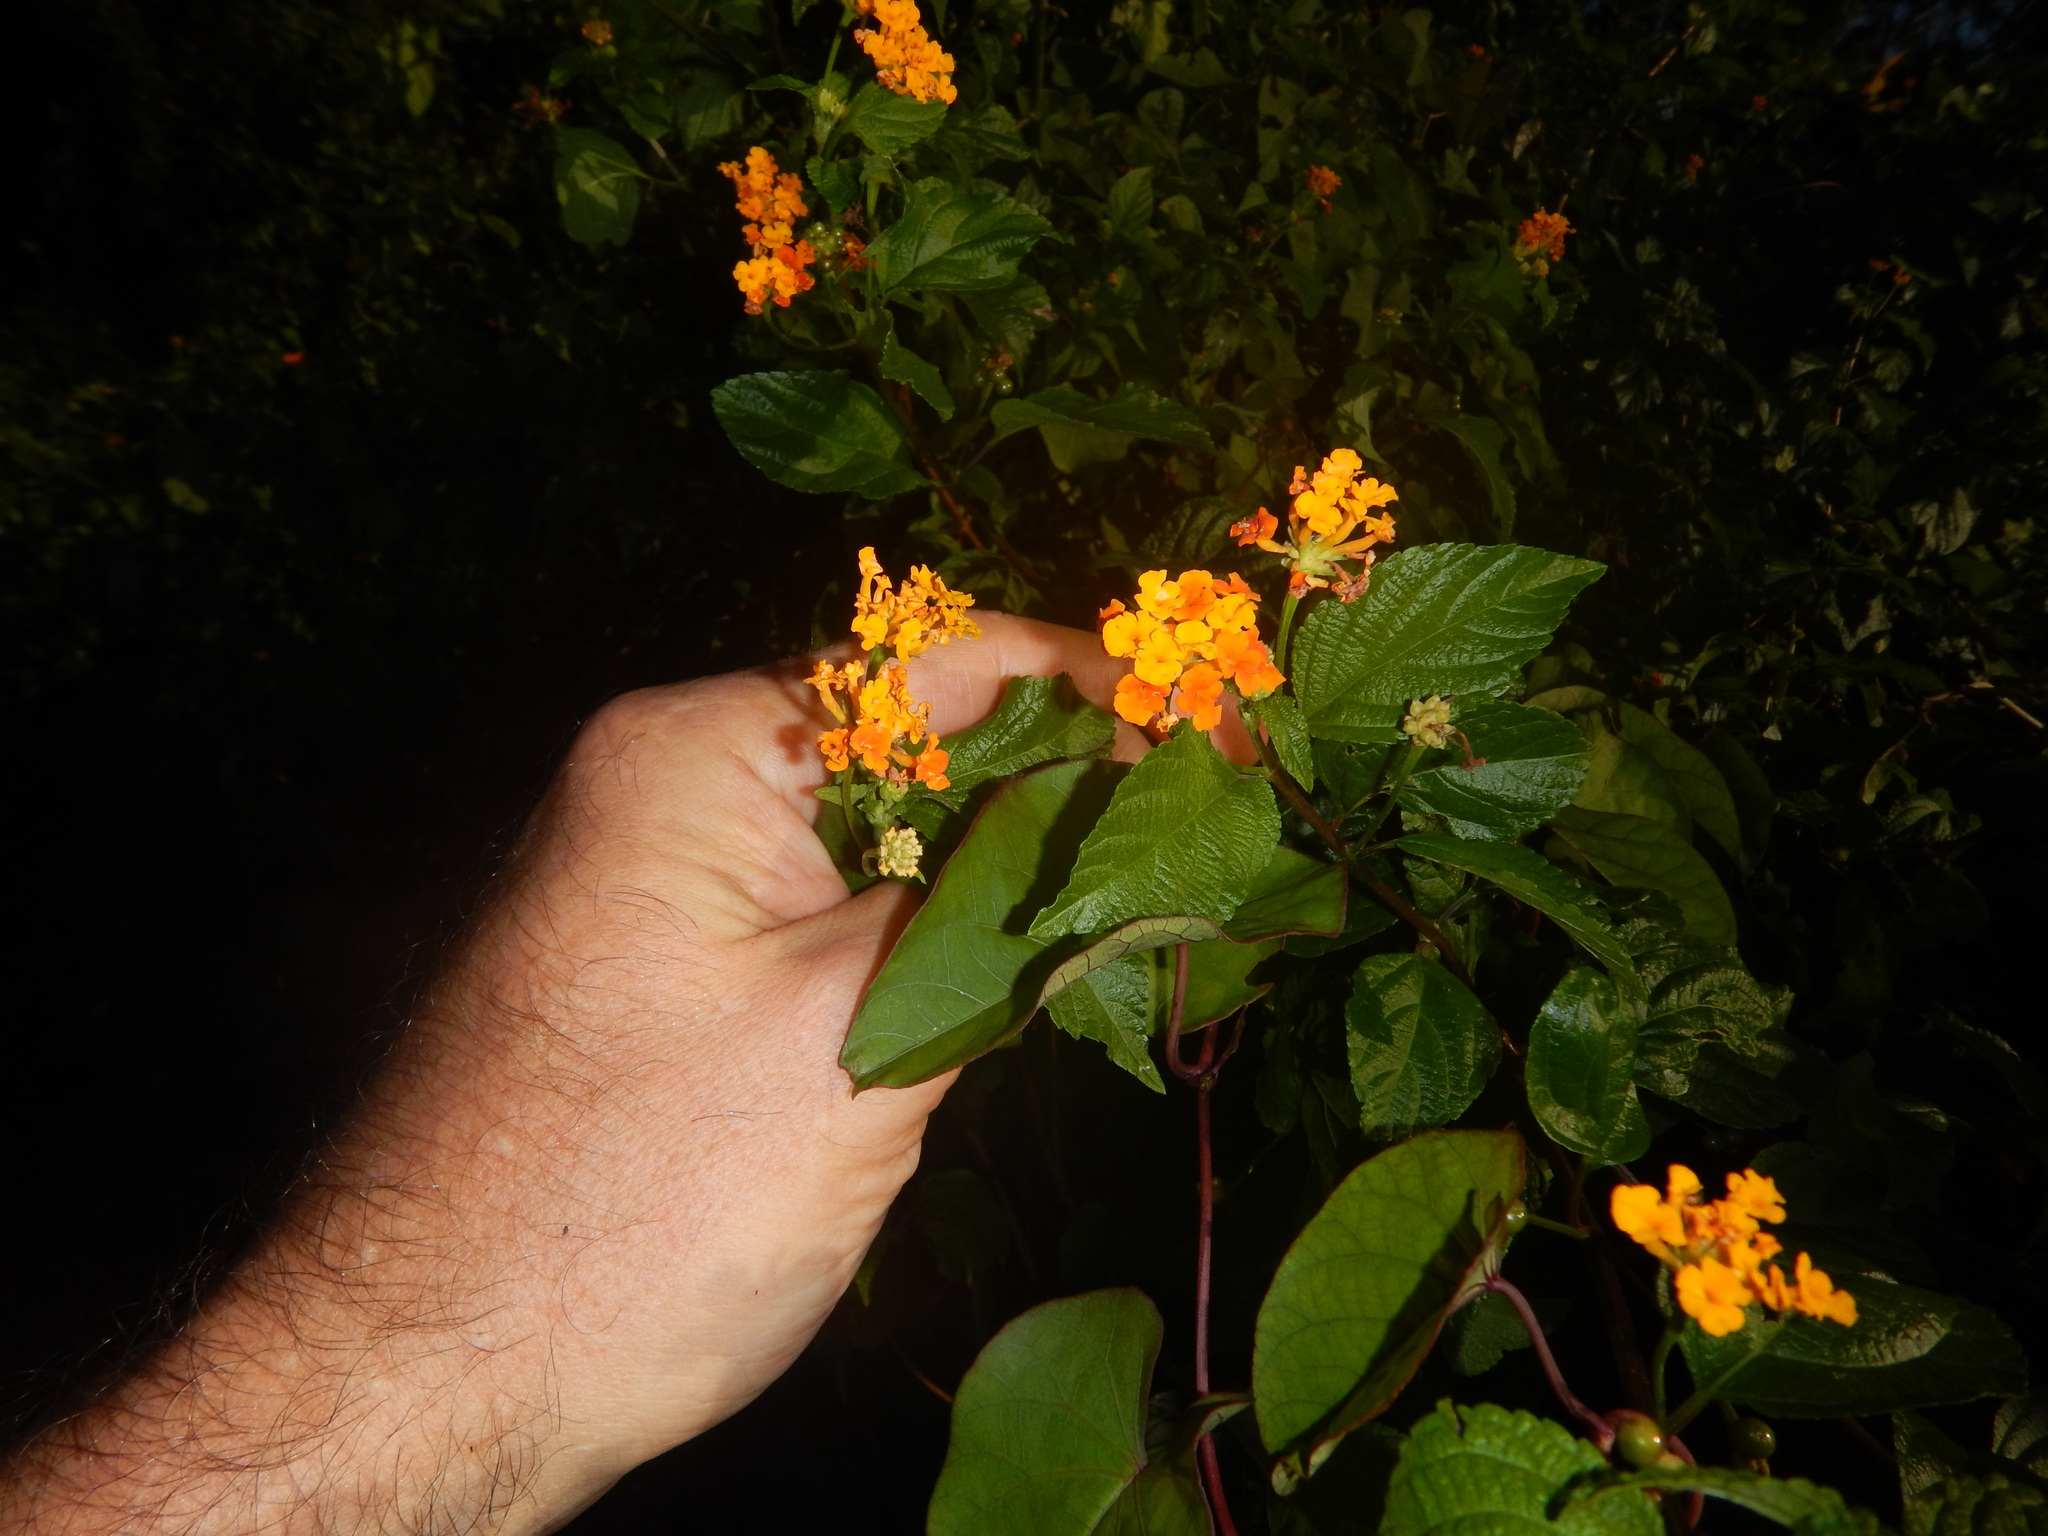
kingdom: Plantae
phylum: Tracheophyta
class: Magnoliopsida
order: Lamiales
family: Verbenaceae
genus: Lantana
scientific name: Lantana camara
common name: Lantana
